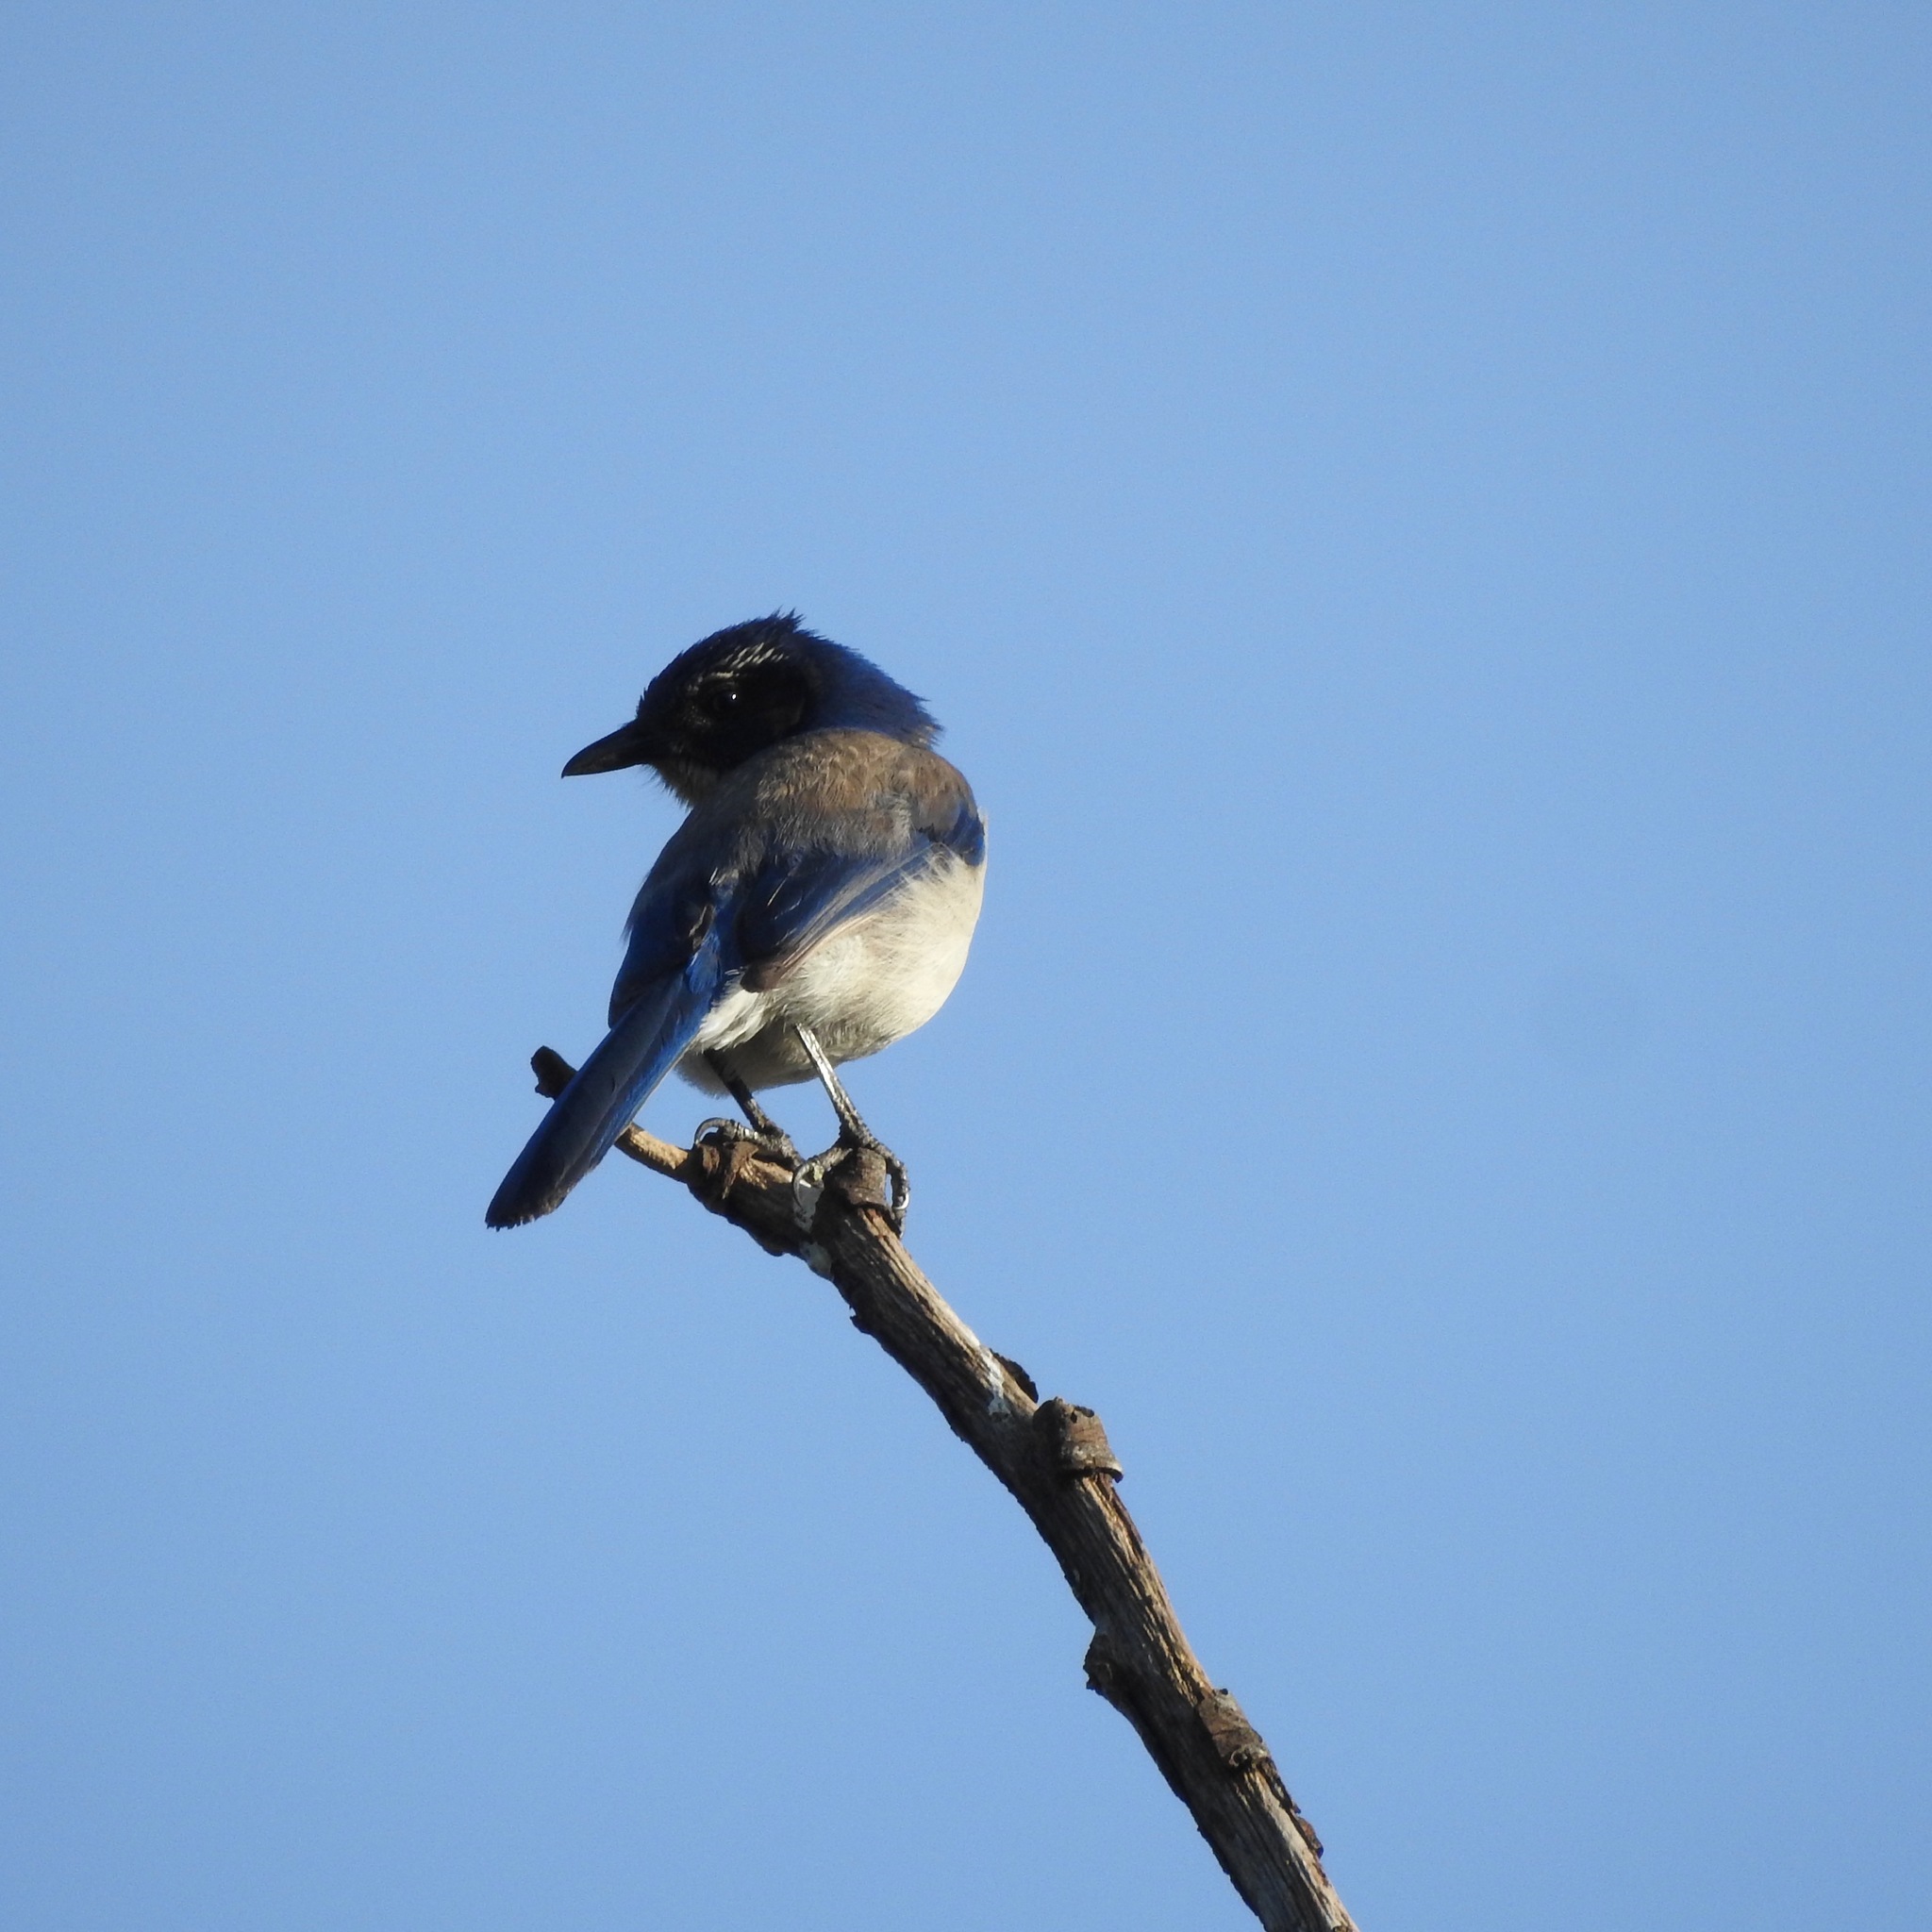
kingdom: Animalia
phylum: Chordata
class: Aves
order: Passeriformes
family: Corvidae
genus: Aphelocoma
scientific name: Aphelocoma californica
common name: California scrub-jay
